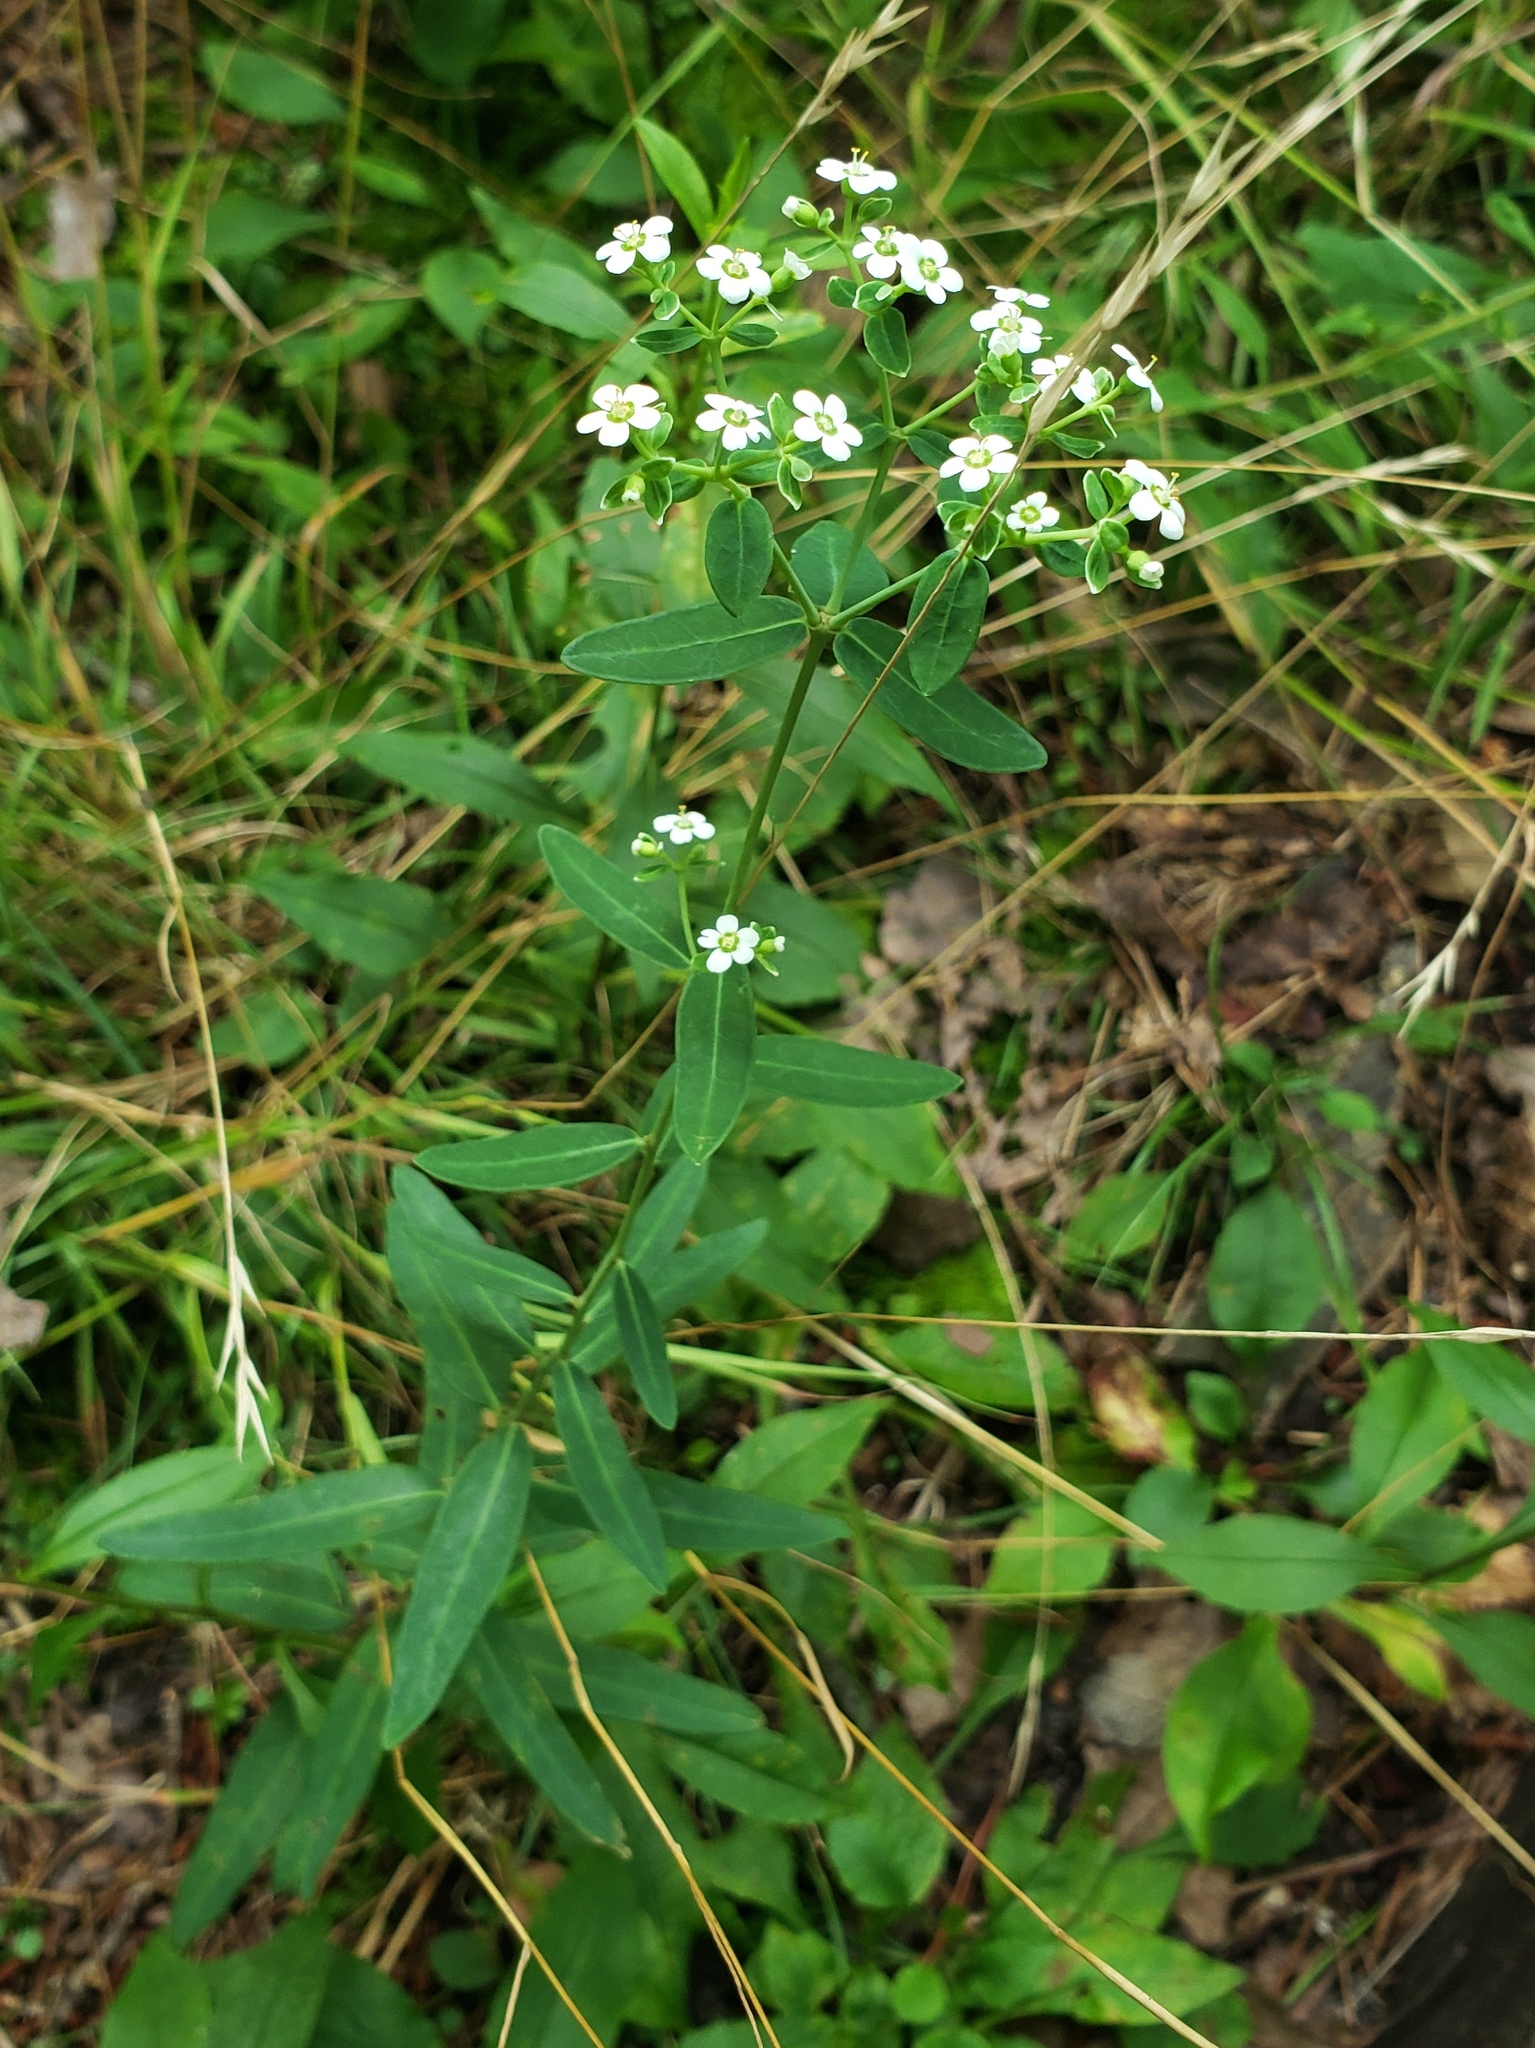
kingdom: Plantae
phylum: Tracheophyta
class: Magnoliopsida
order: Malpighiales
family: Euphorbiaceae
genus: Euphorbia
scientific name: Euphorbia corollata
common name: Flowering spurge
